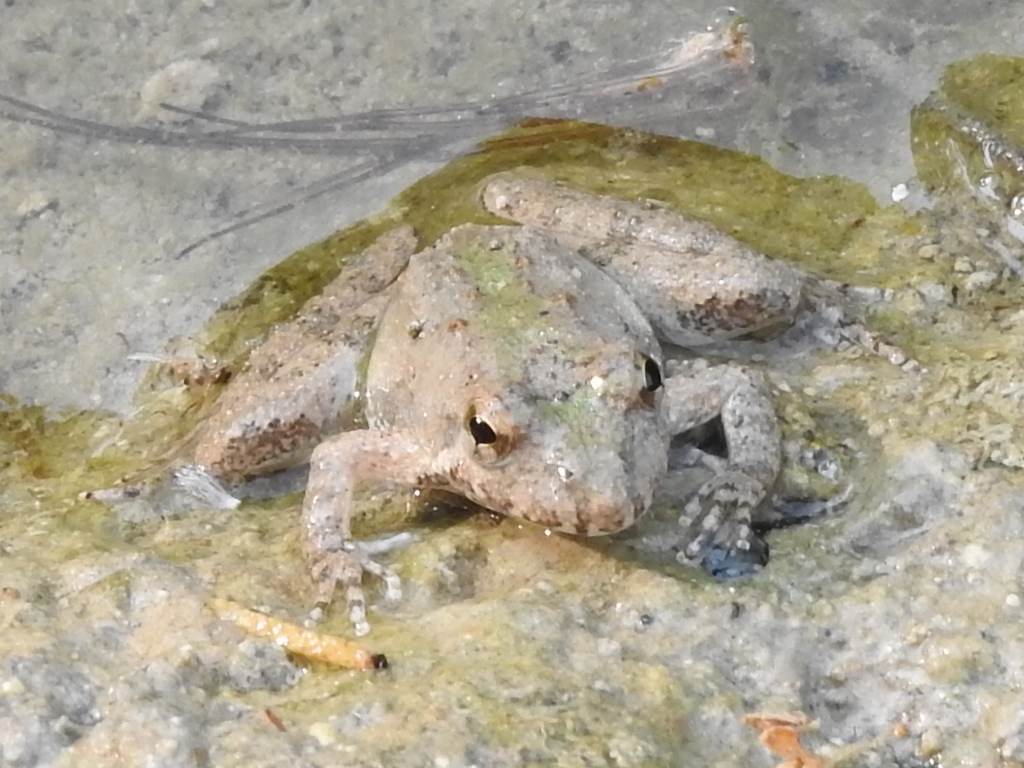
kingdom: Animalia
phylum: Chordata
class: Amphibia
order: Anura
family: Hylidae
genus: Acris
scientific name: Acris blanchardi
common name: Blanchard's cricket frog
